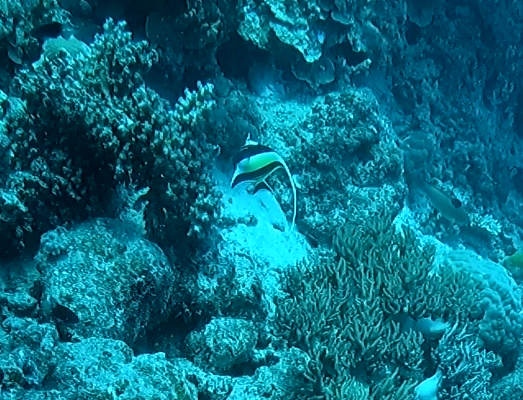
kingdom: Animalia
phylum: Chordata
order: Perciformes
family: Zanclidae
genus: Zanclus
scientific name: Zanclus cornutus
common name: Moorish idol
